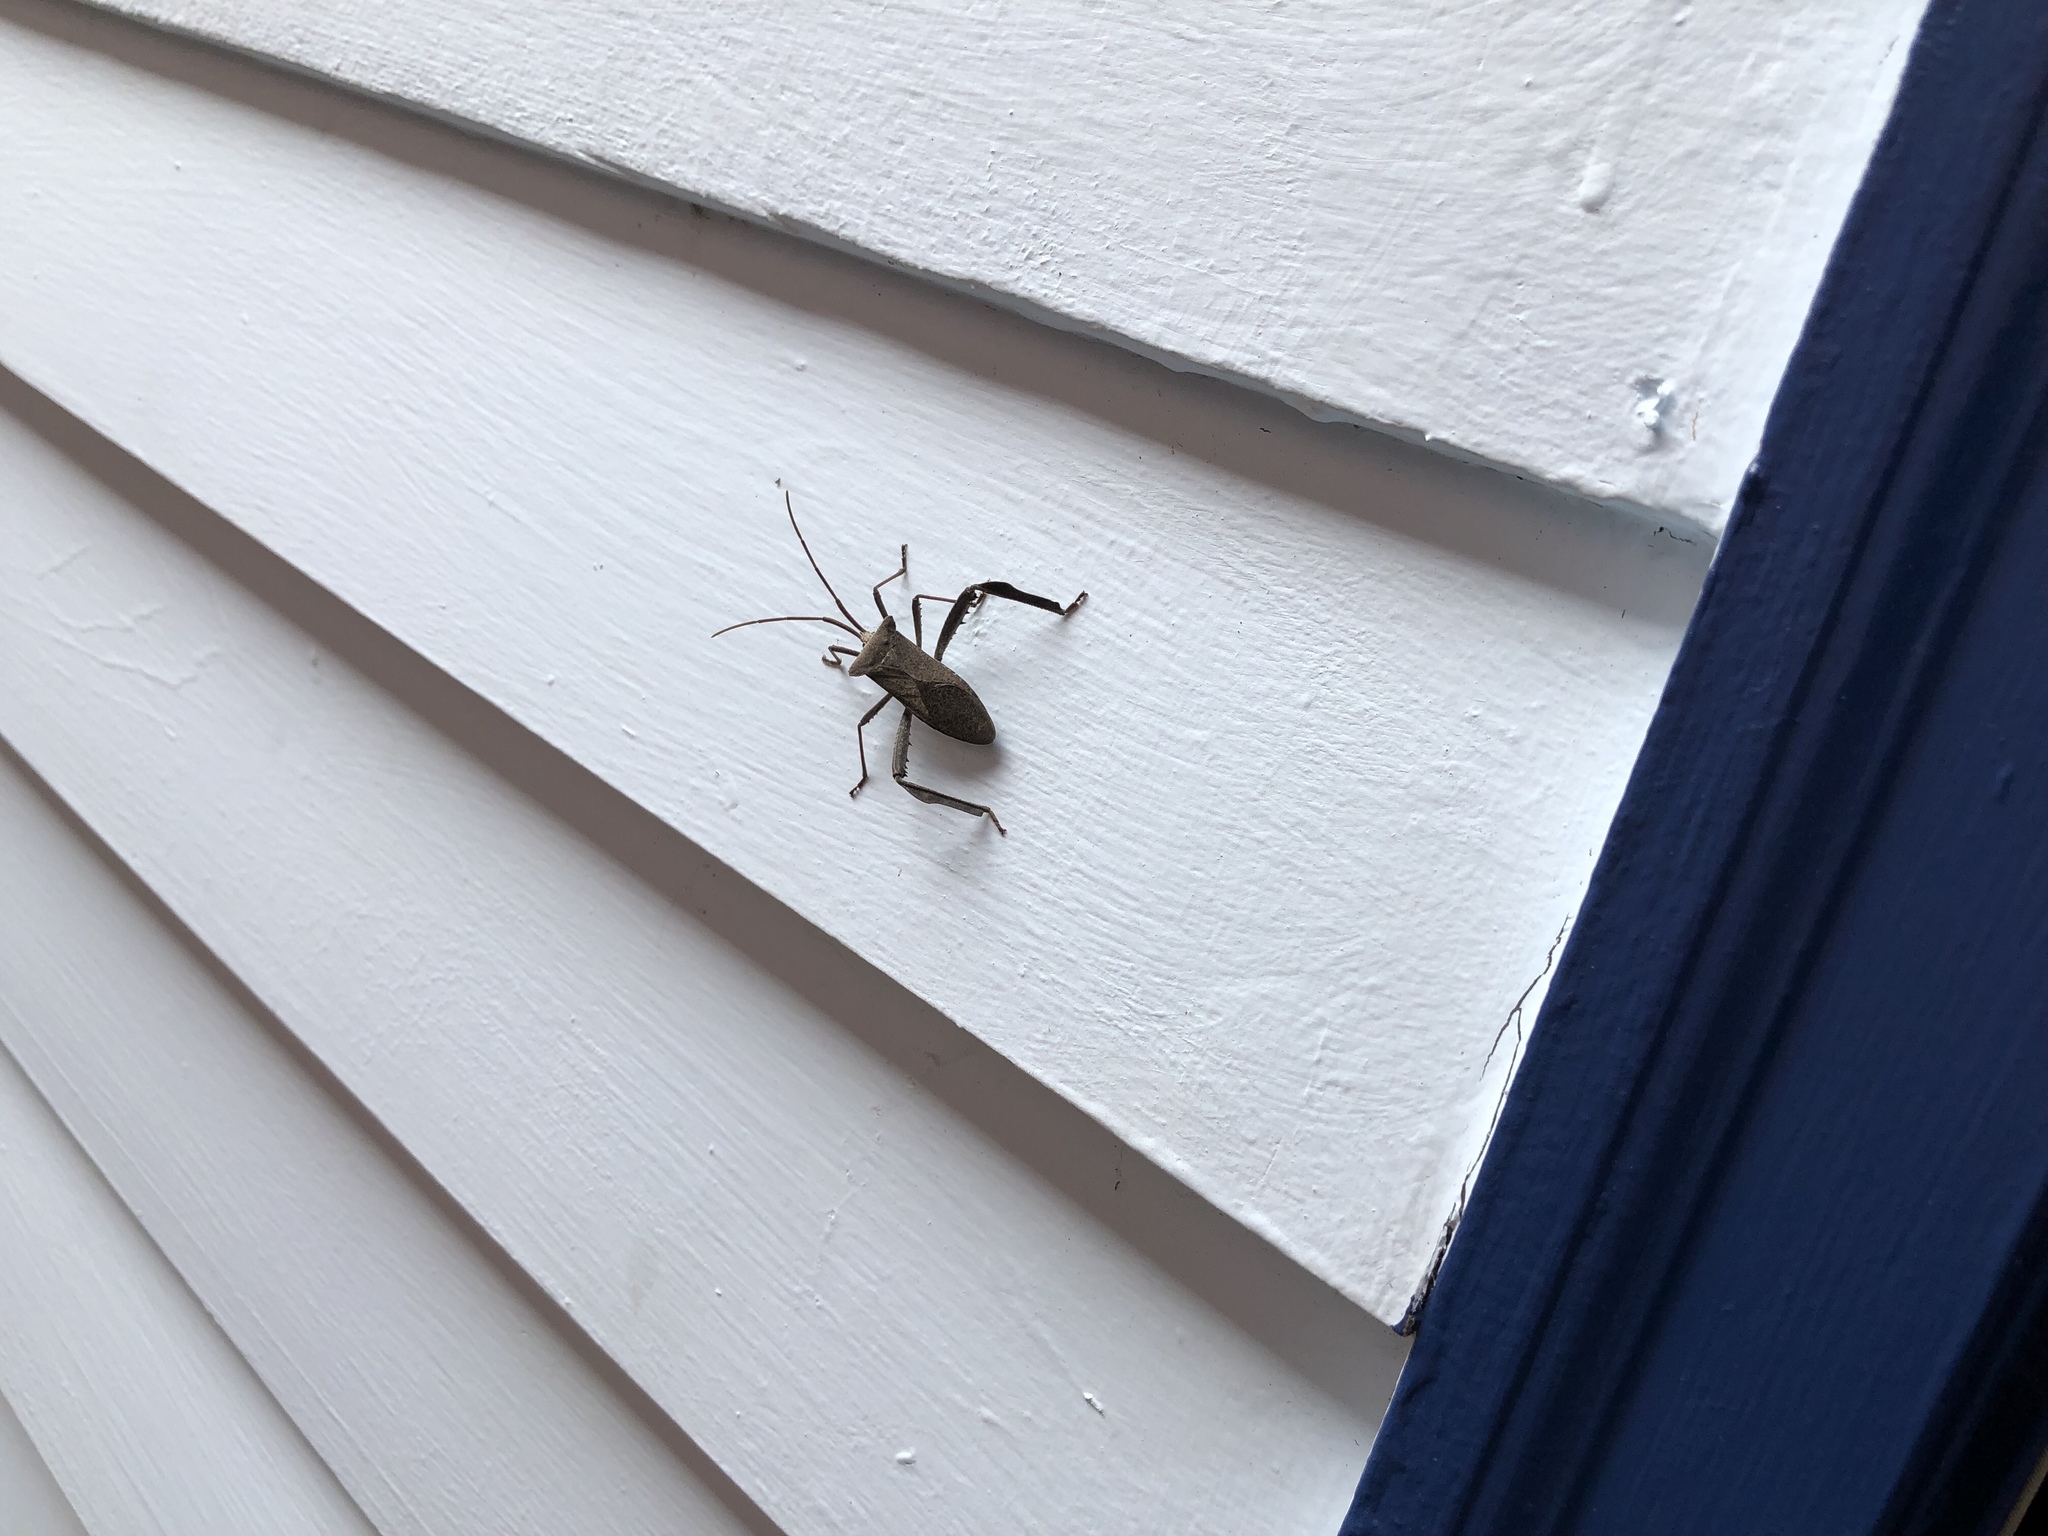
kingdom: Animalia
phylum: Arthropoda
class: Insecta
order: Hemiptera
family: Coreidae
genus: Acanthocephala
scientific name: Acanthocephala declivis
